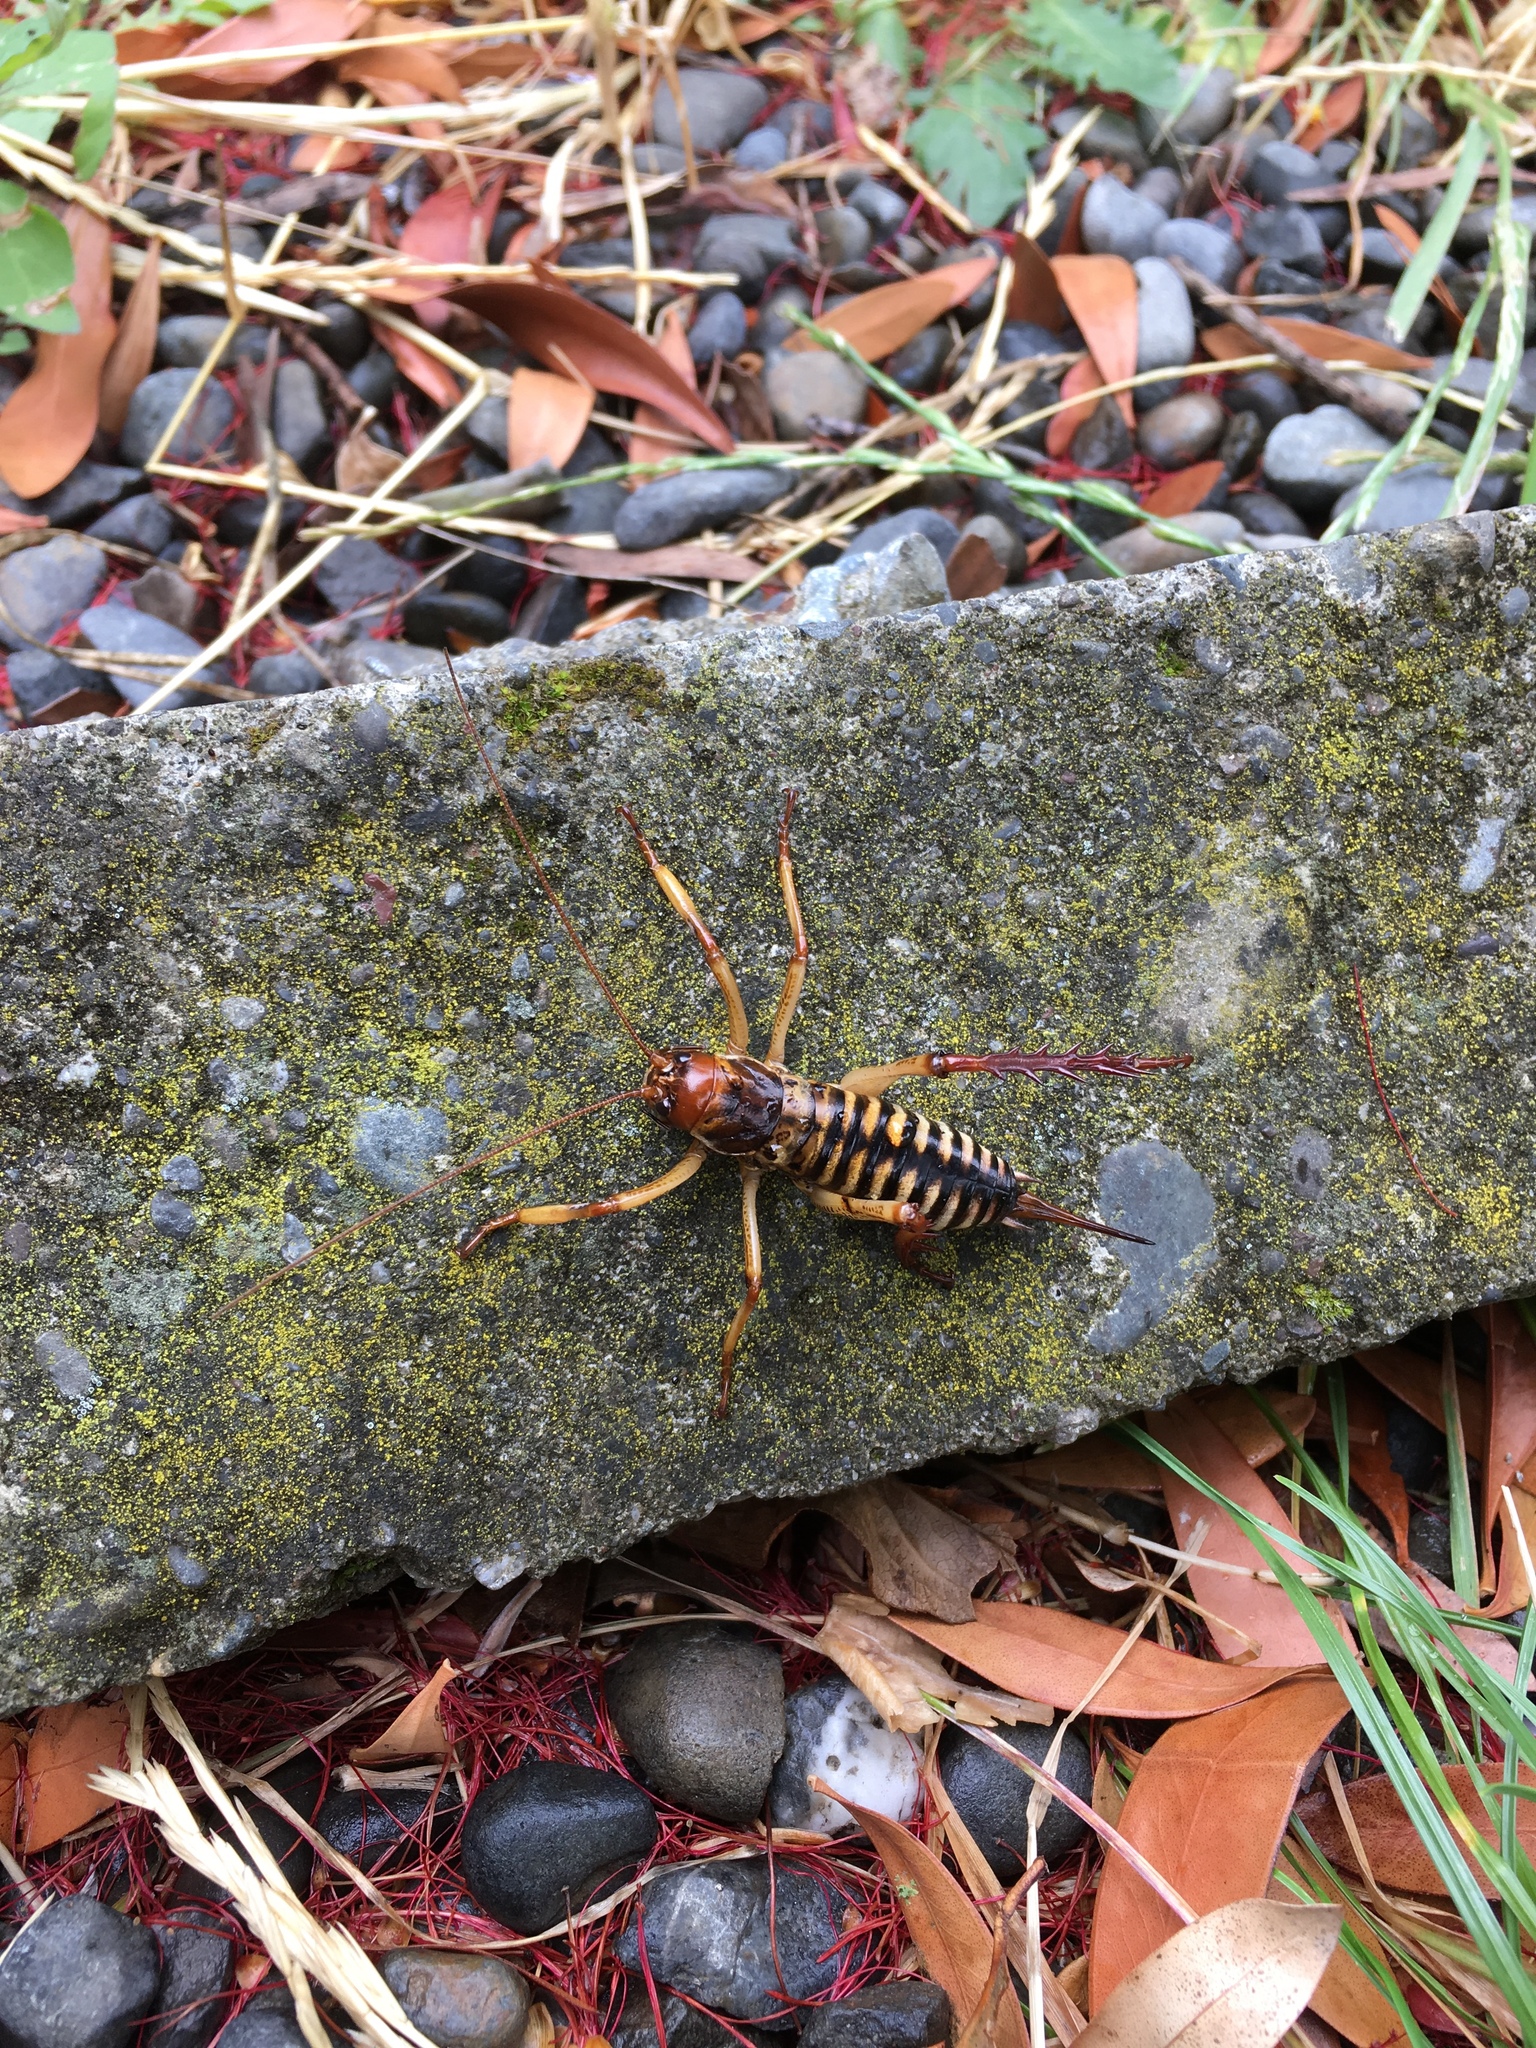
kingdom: Animalia
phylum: Arthropoda
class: Insecta
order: Orthoptera
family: Anostostomatidae
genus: Hemideina
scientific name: Hemideina crassidens
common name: Wellington tree weta
